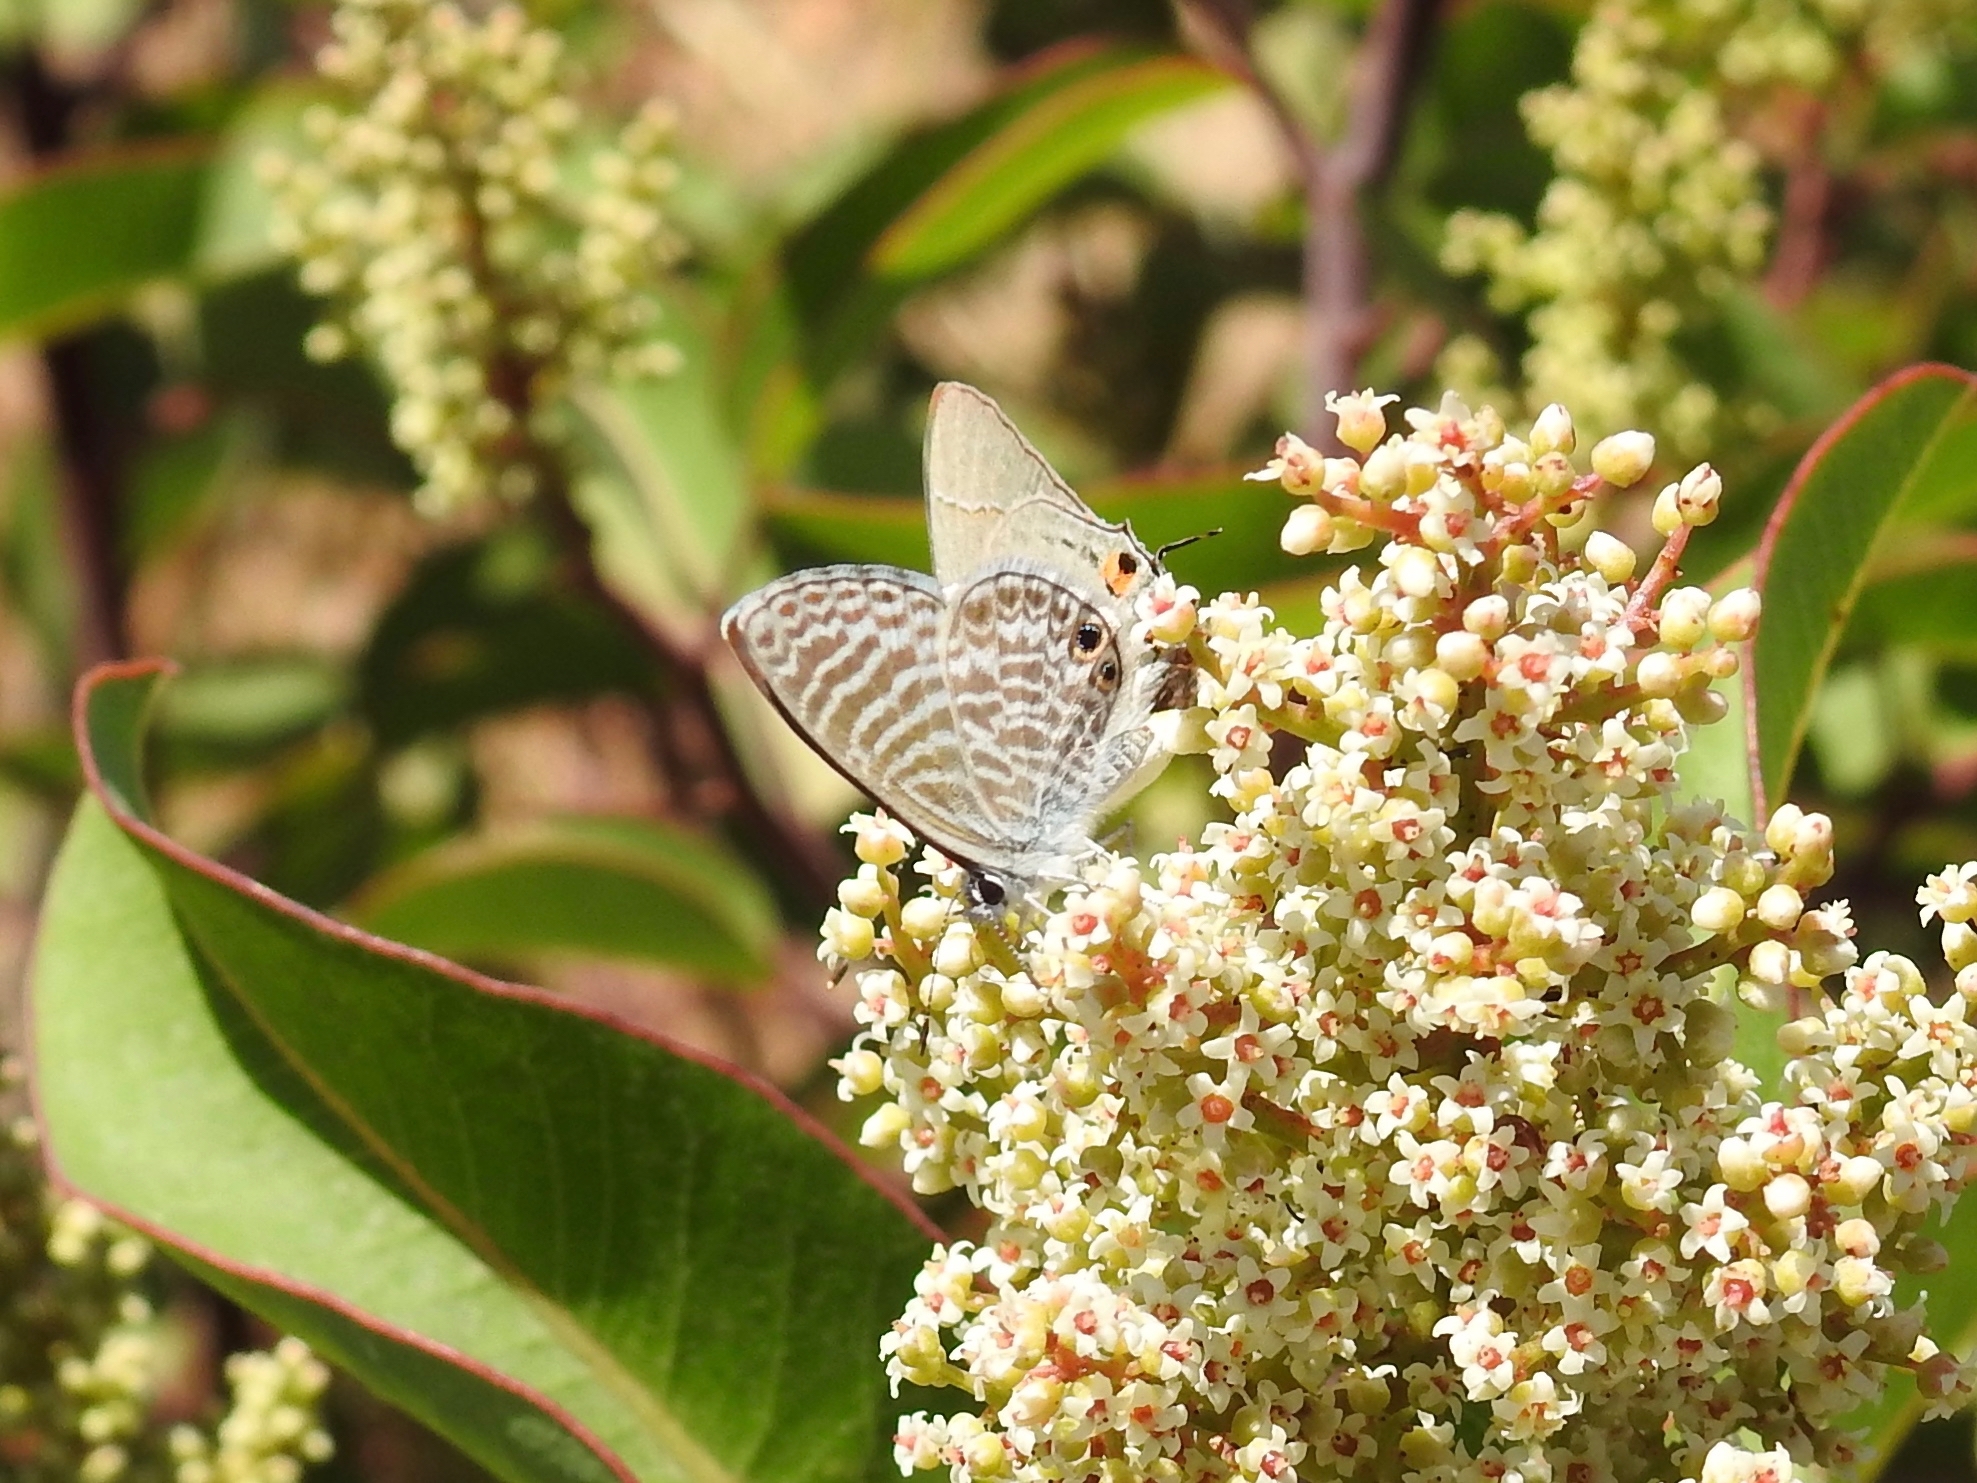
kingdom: Animalia
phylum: Arthropoda
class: Insecta
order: Lepidoptera
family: Lycaenidae
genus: Leptotes
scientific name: Leptotes marina
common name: Marine blue
